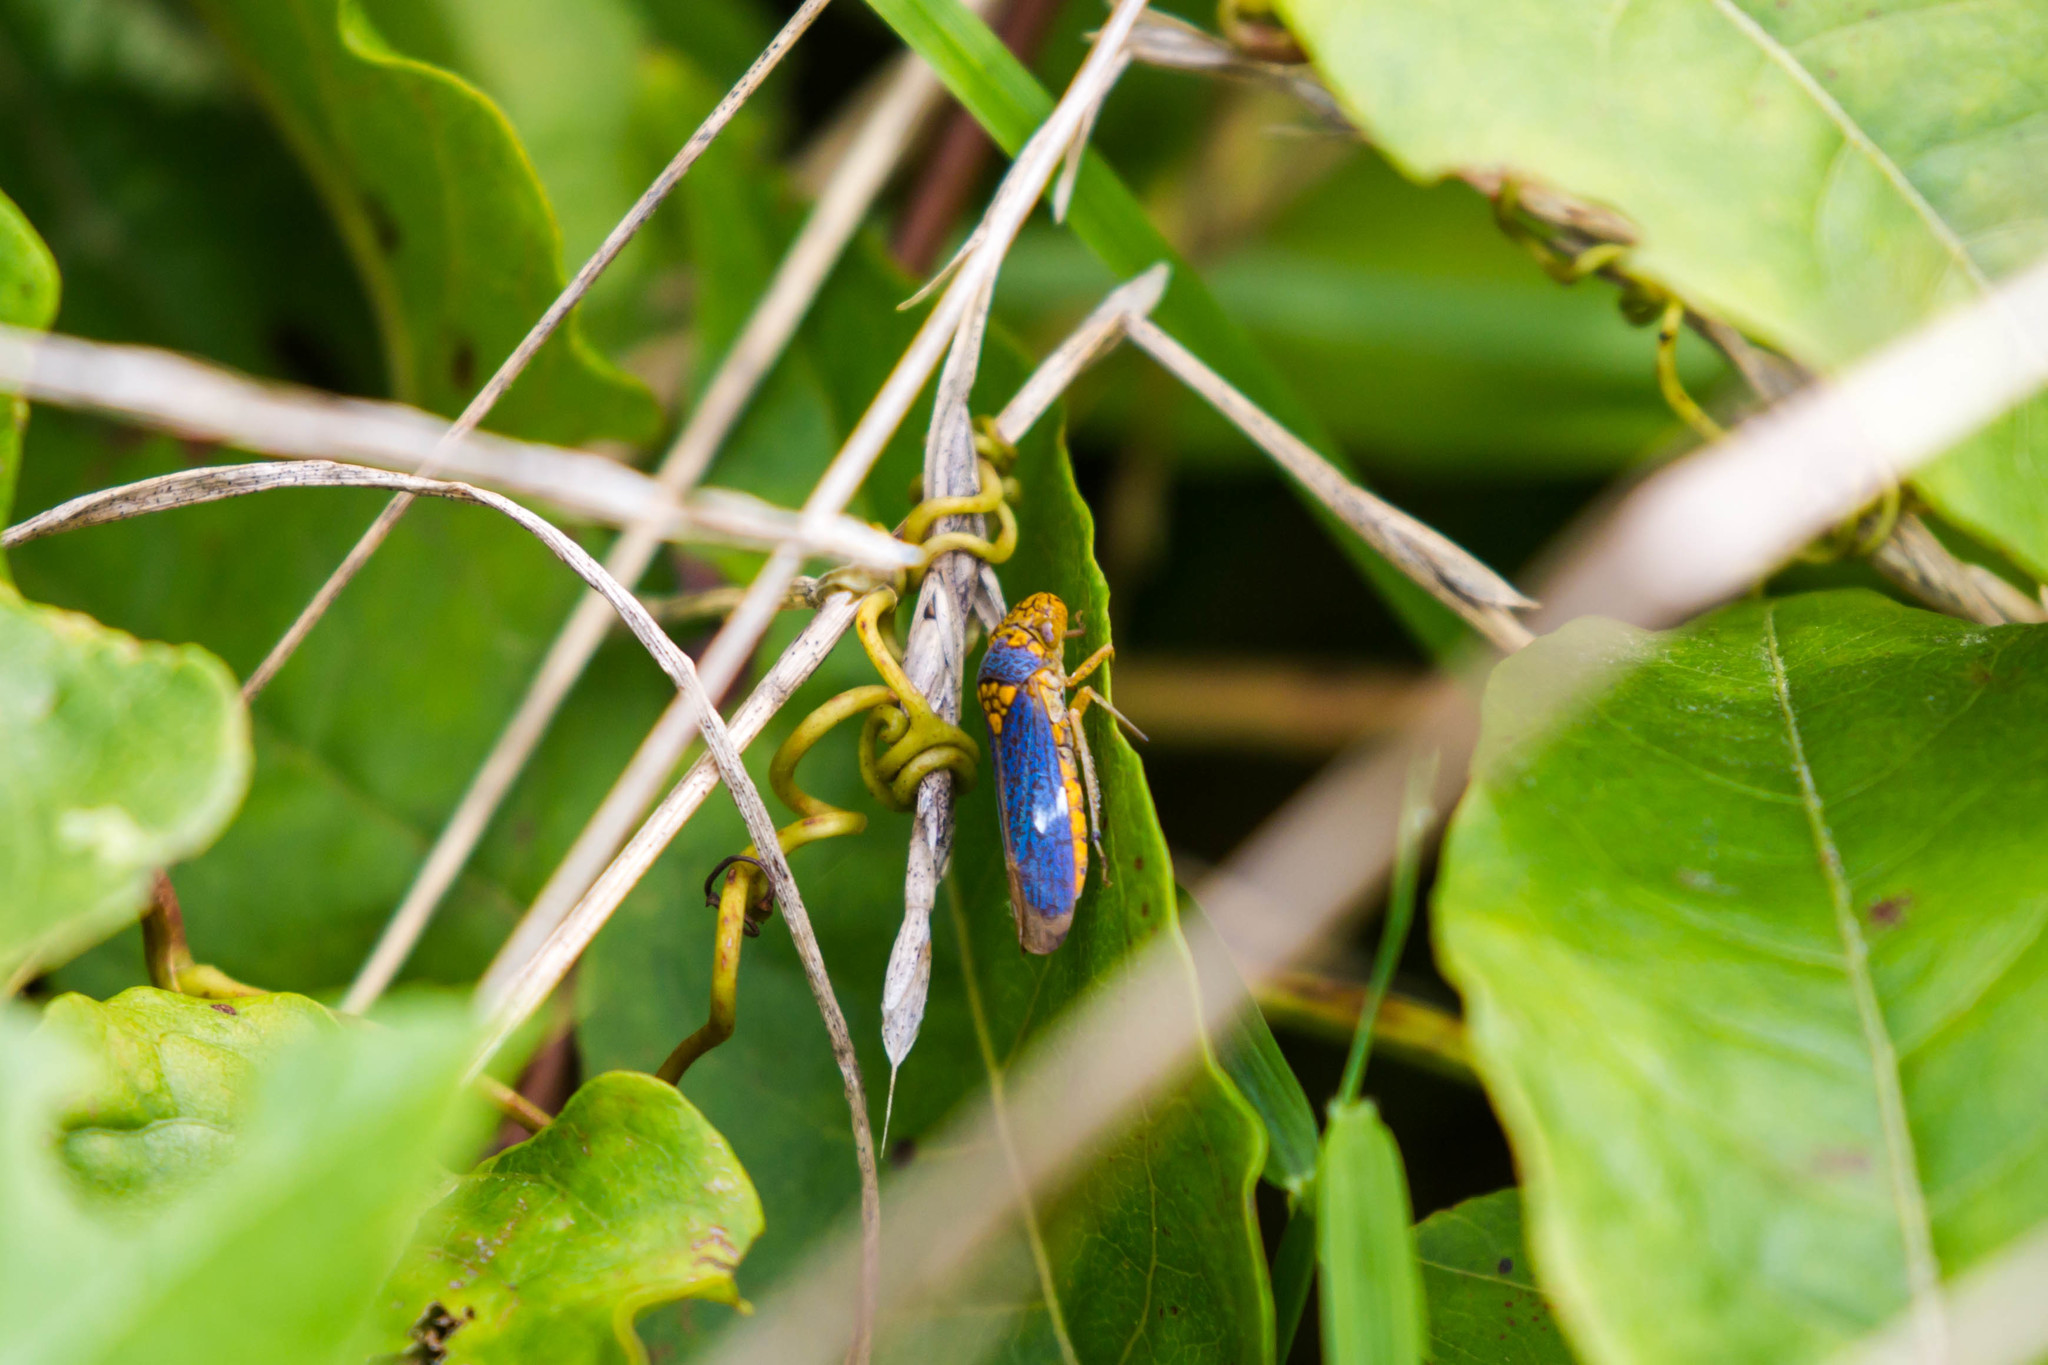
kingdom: Animalia
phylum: Arthropoda
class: Insecta
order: Hemiptera
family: Cicadellidae
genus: Oncometopia
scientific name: Oncometopia orbona
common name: Broad-headed sharpshooter
